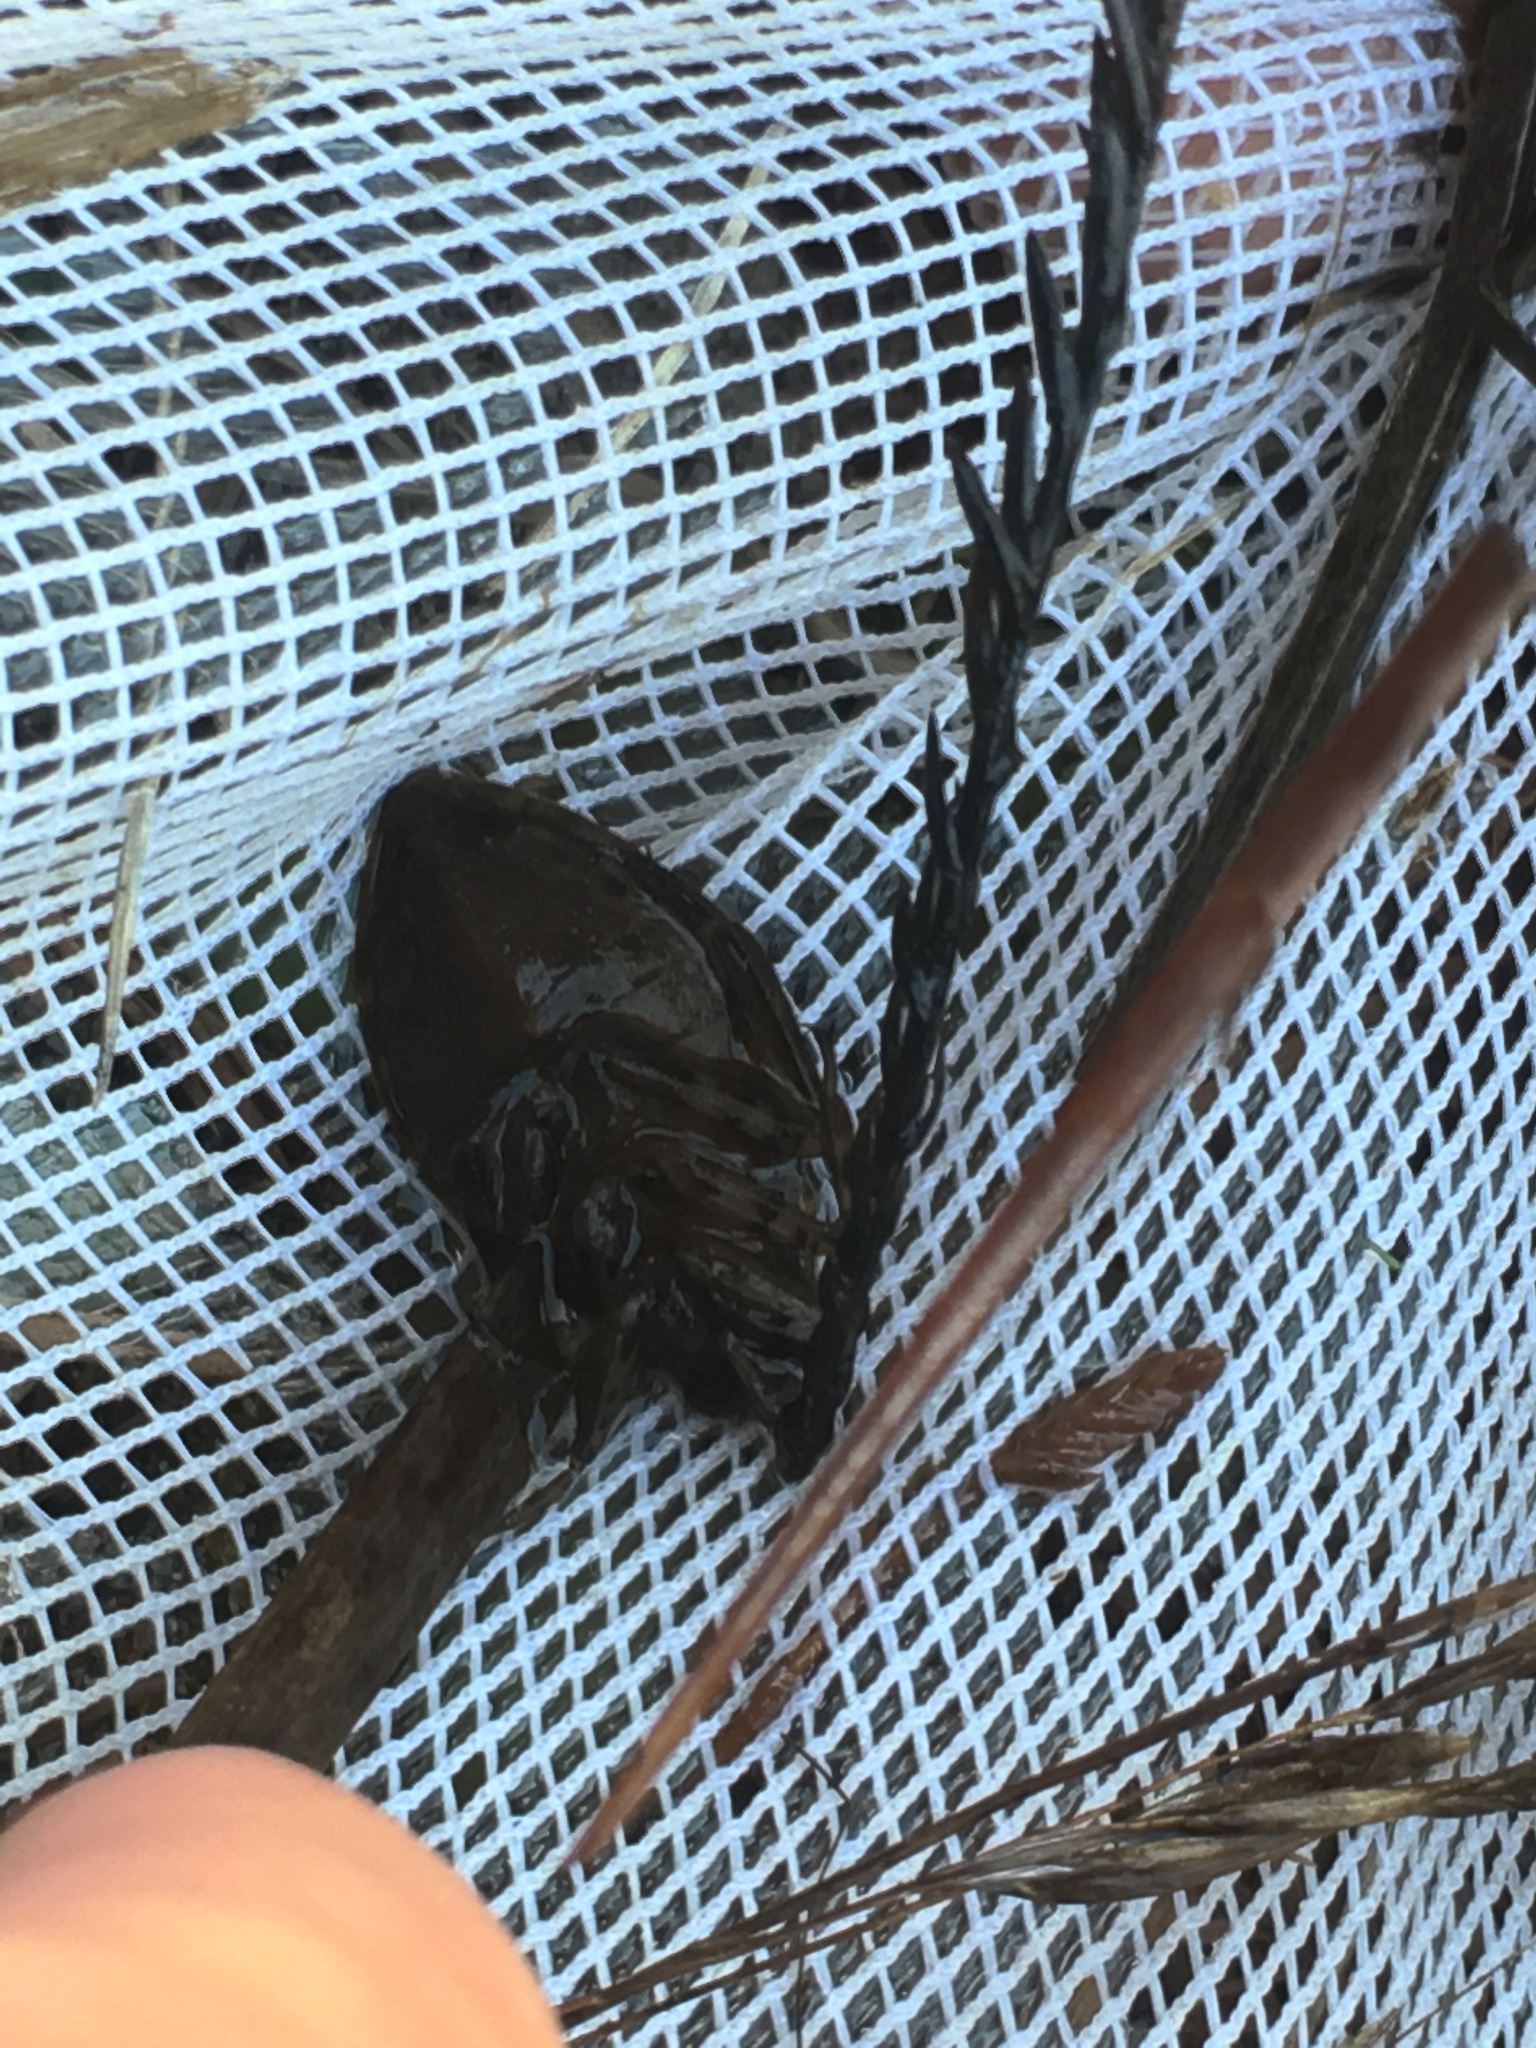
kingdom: Animalia
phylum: Arthropoda
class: Insecta
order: Hemiptera
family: Belostomatidae
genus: Belostoma
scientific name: Belostoma
